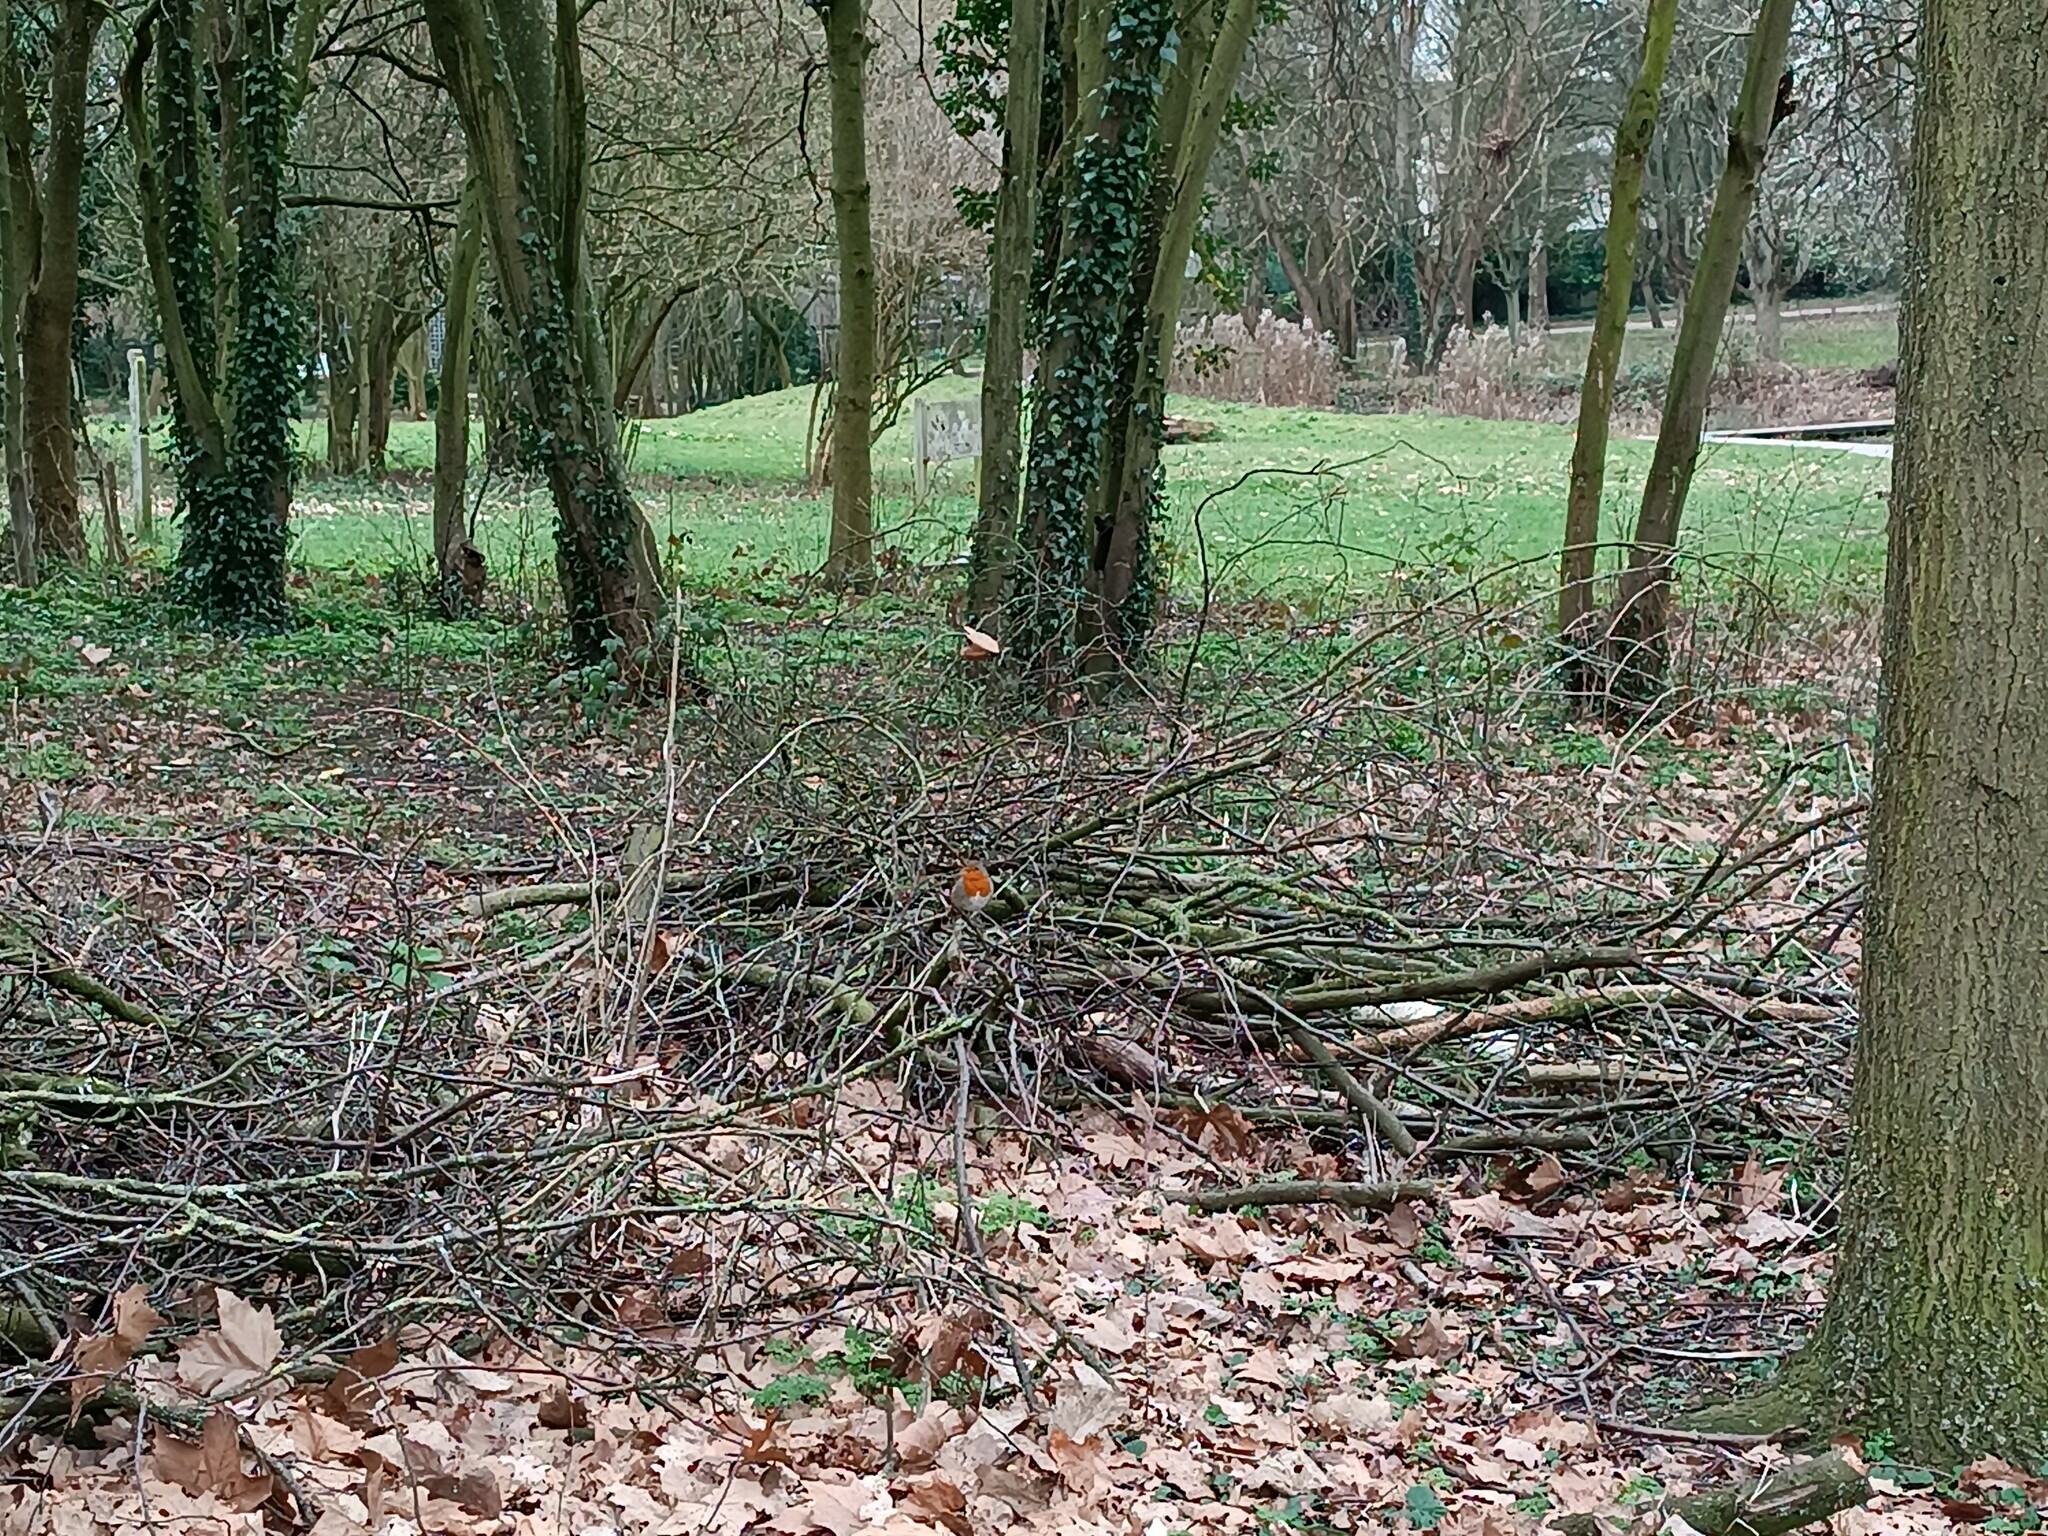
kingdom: Animalia
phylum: Chordata
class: Aves
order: Passeriformes
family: Muscicapidae
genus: Erithacus
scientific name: Erithacus rubecula
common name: European robin
